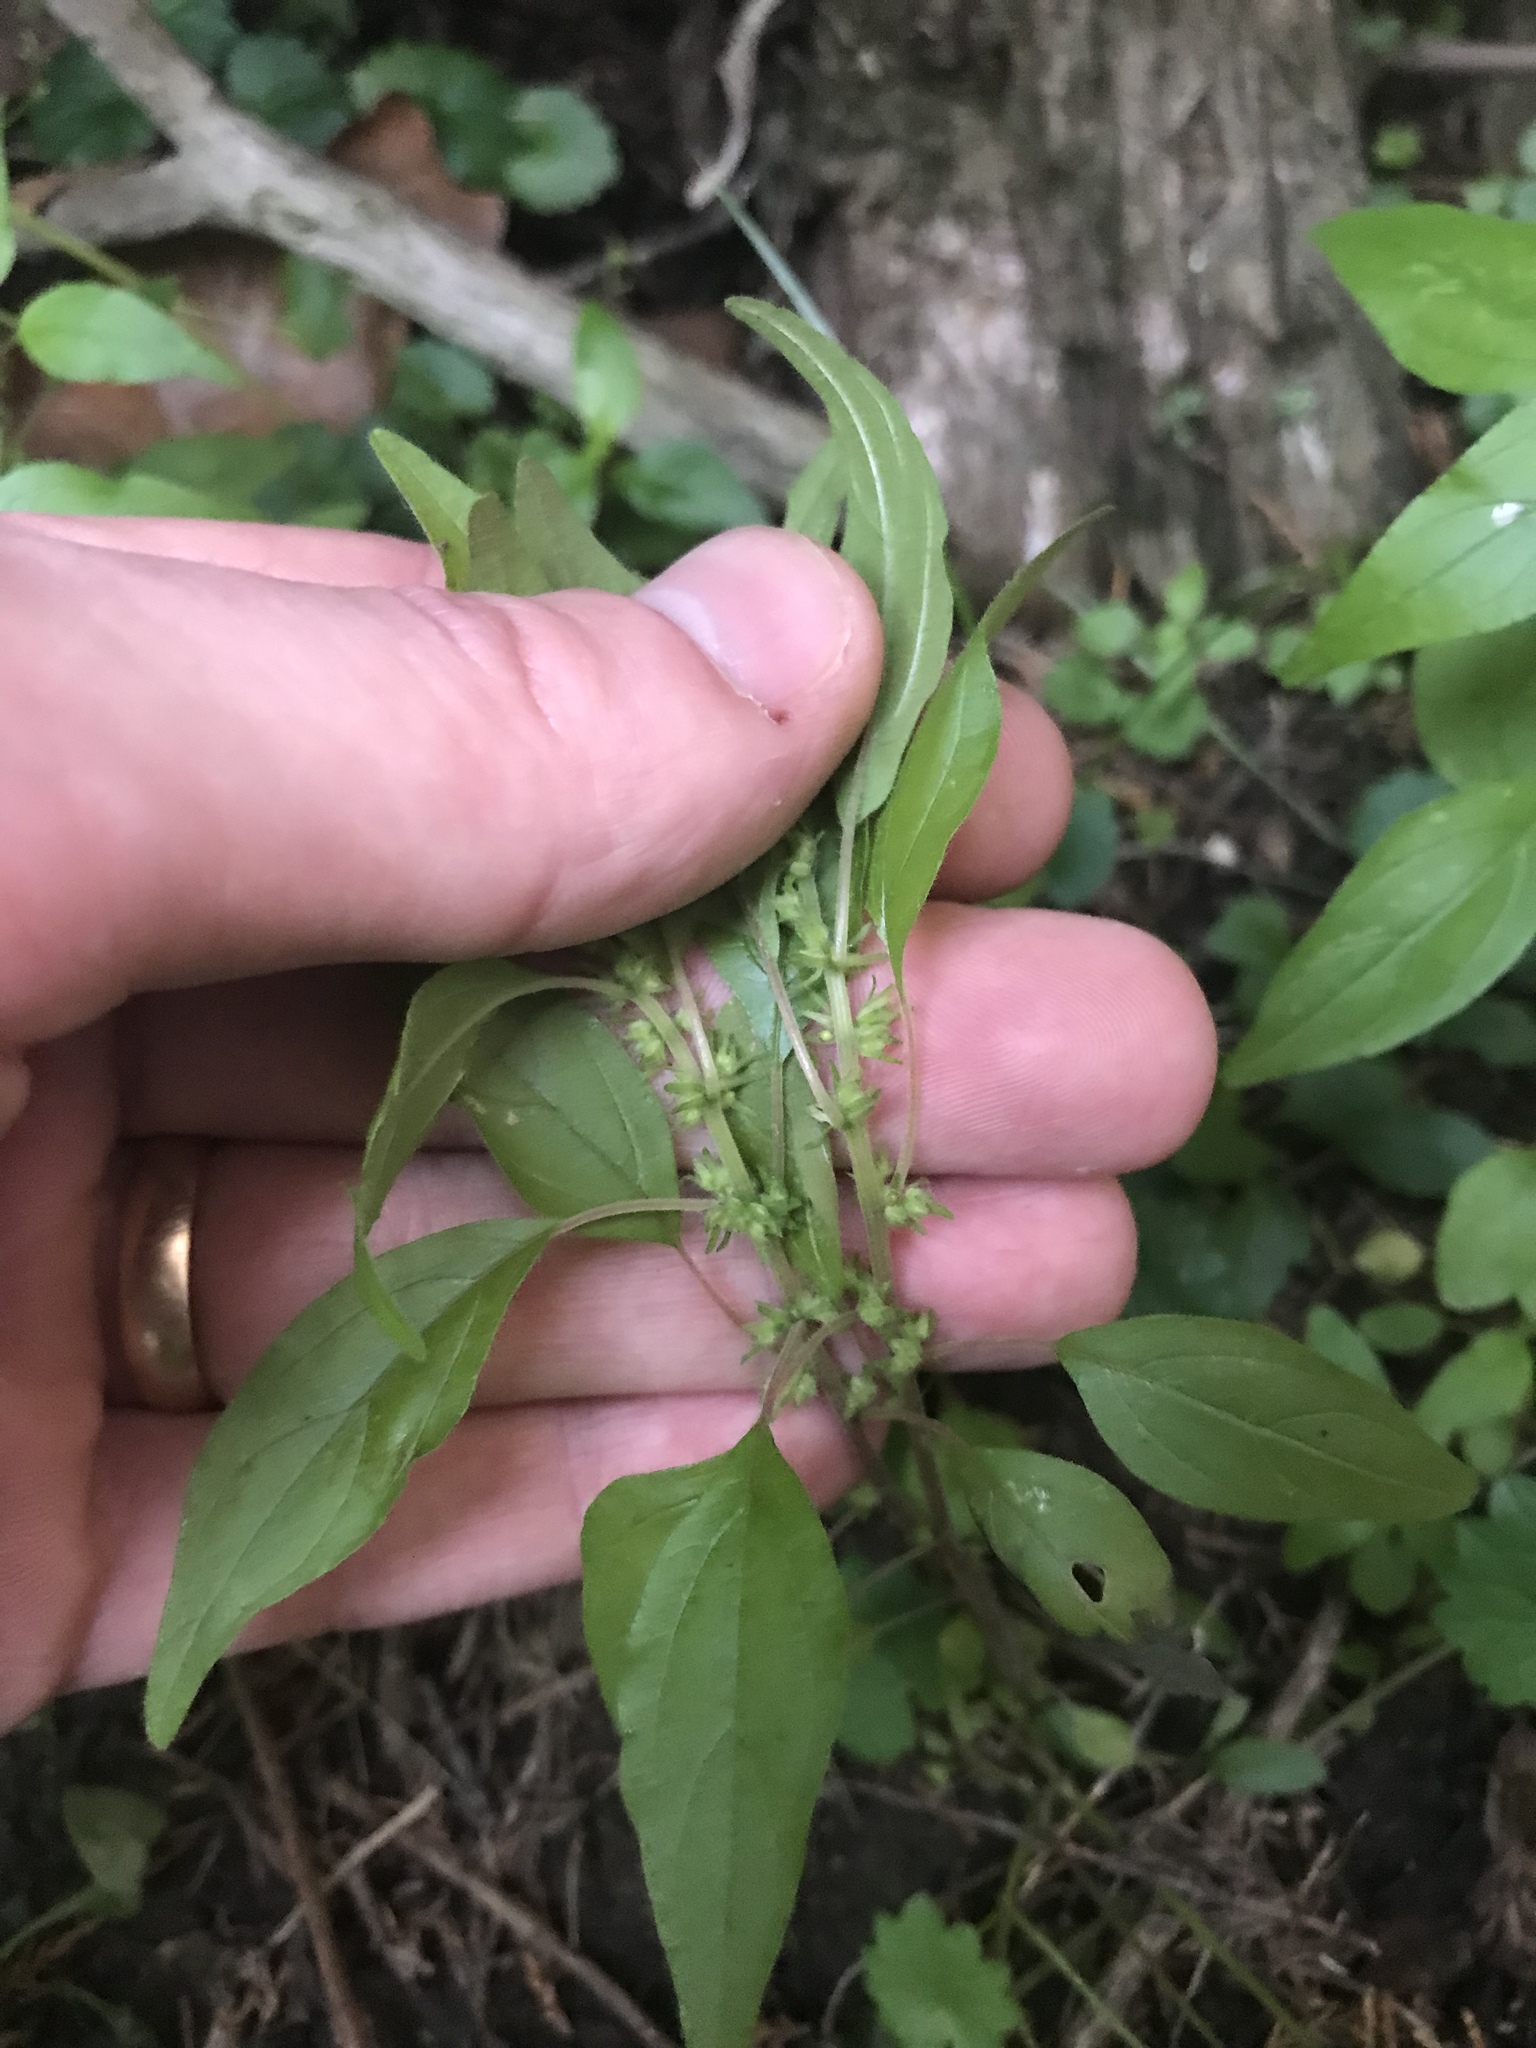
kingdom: Plantae
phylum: Tracheophyta
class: Magnoliopsida
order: Rosales
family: Urticaceae
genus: Parietaria
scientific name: Parietaria pensylvanica
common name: Pennsylvania pellitory
